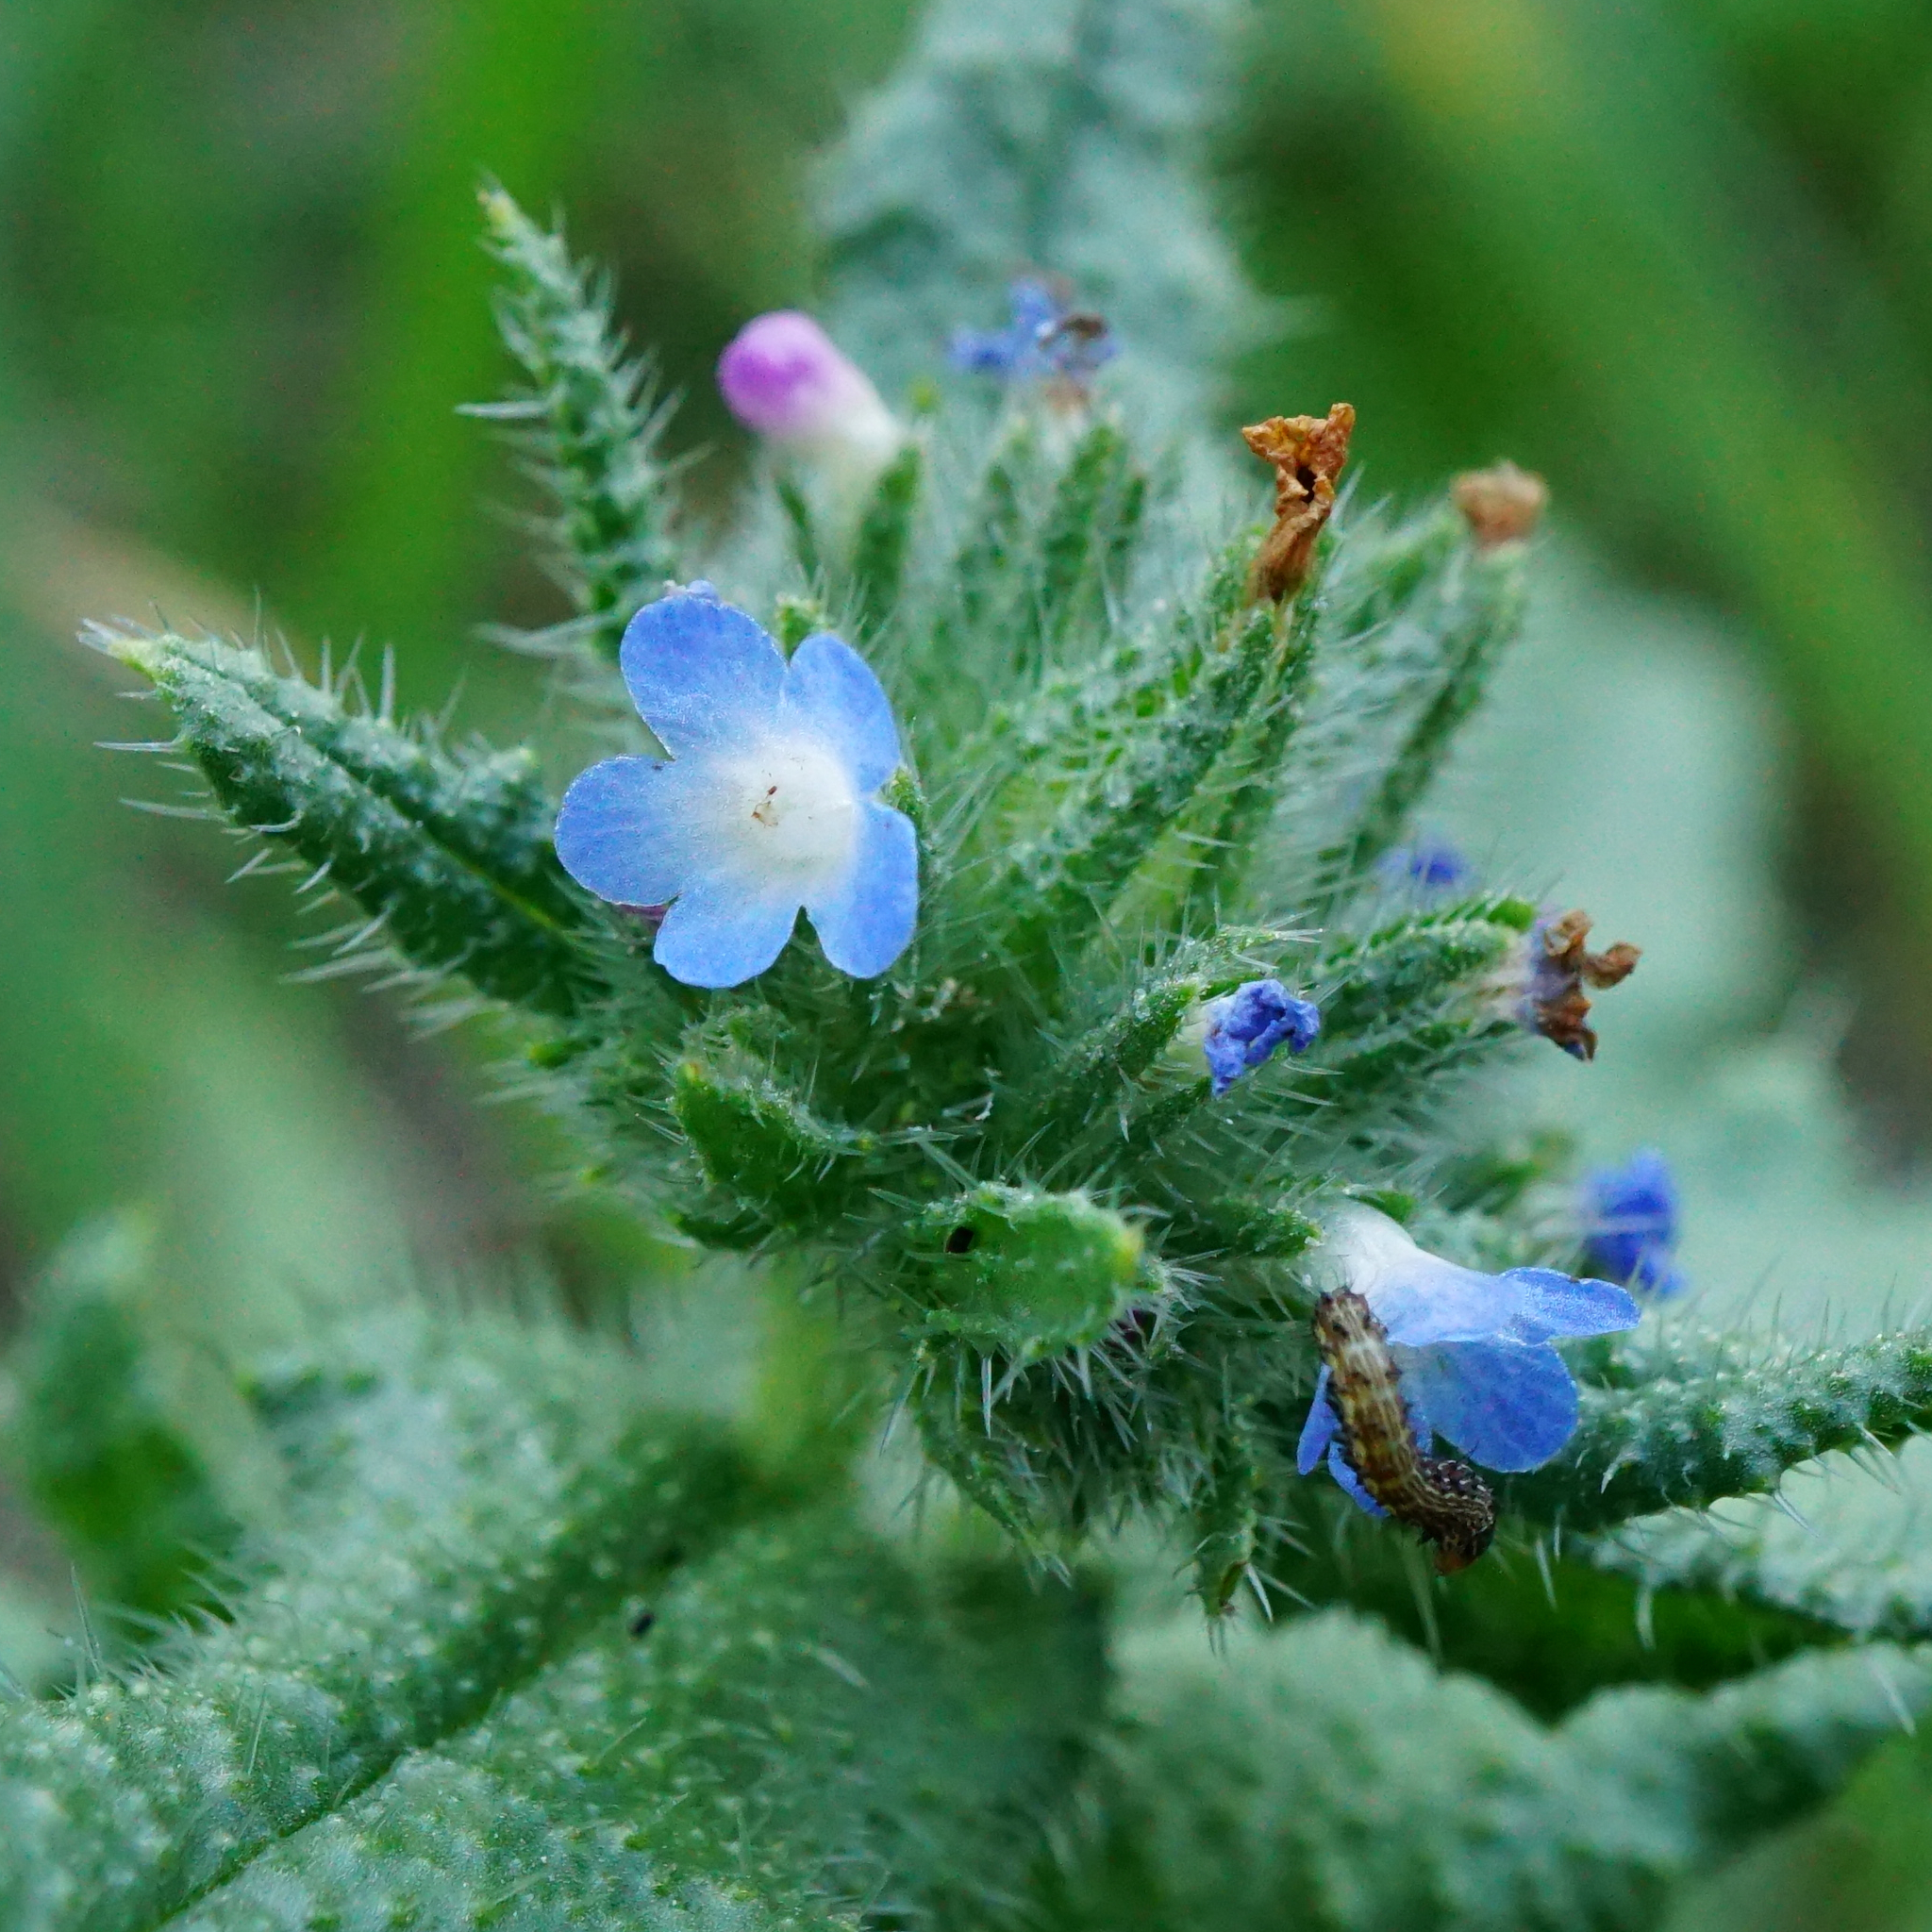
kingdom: Plantae
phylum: Tracheophyta
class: Magnoliopsida
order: Boraginales
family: Boraginaceae
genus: Lycopsis
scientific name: Lycopsis arvensis
